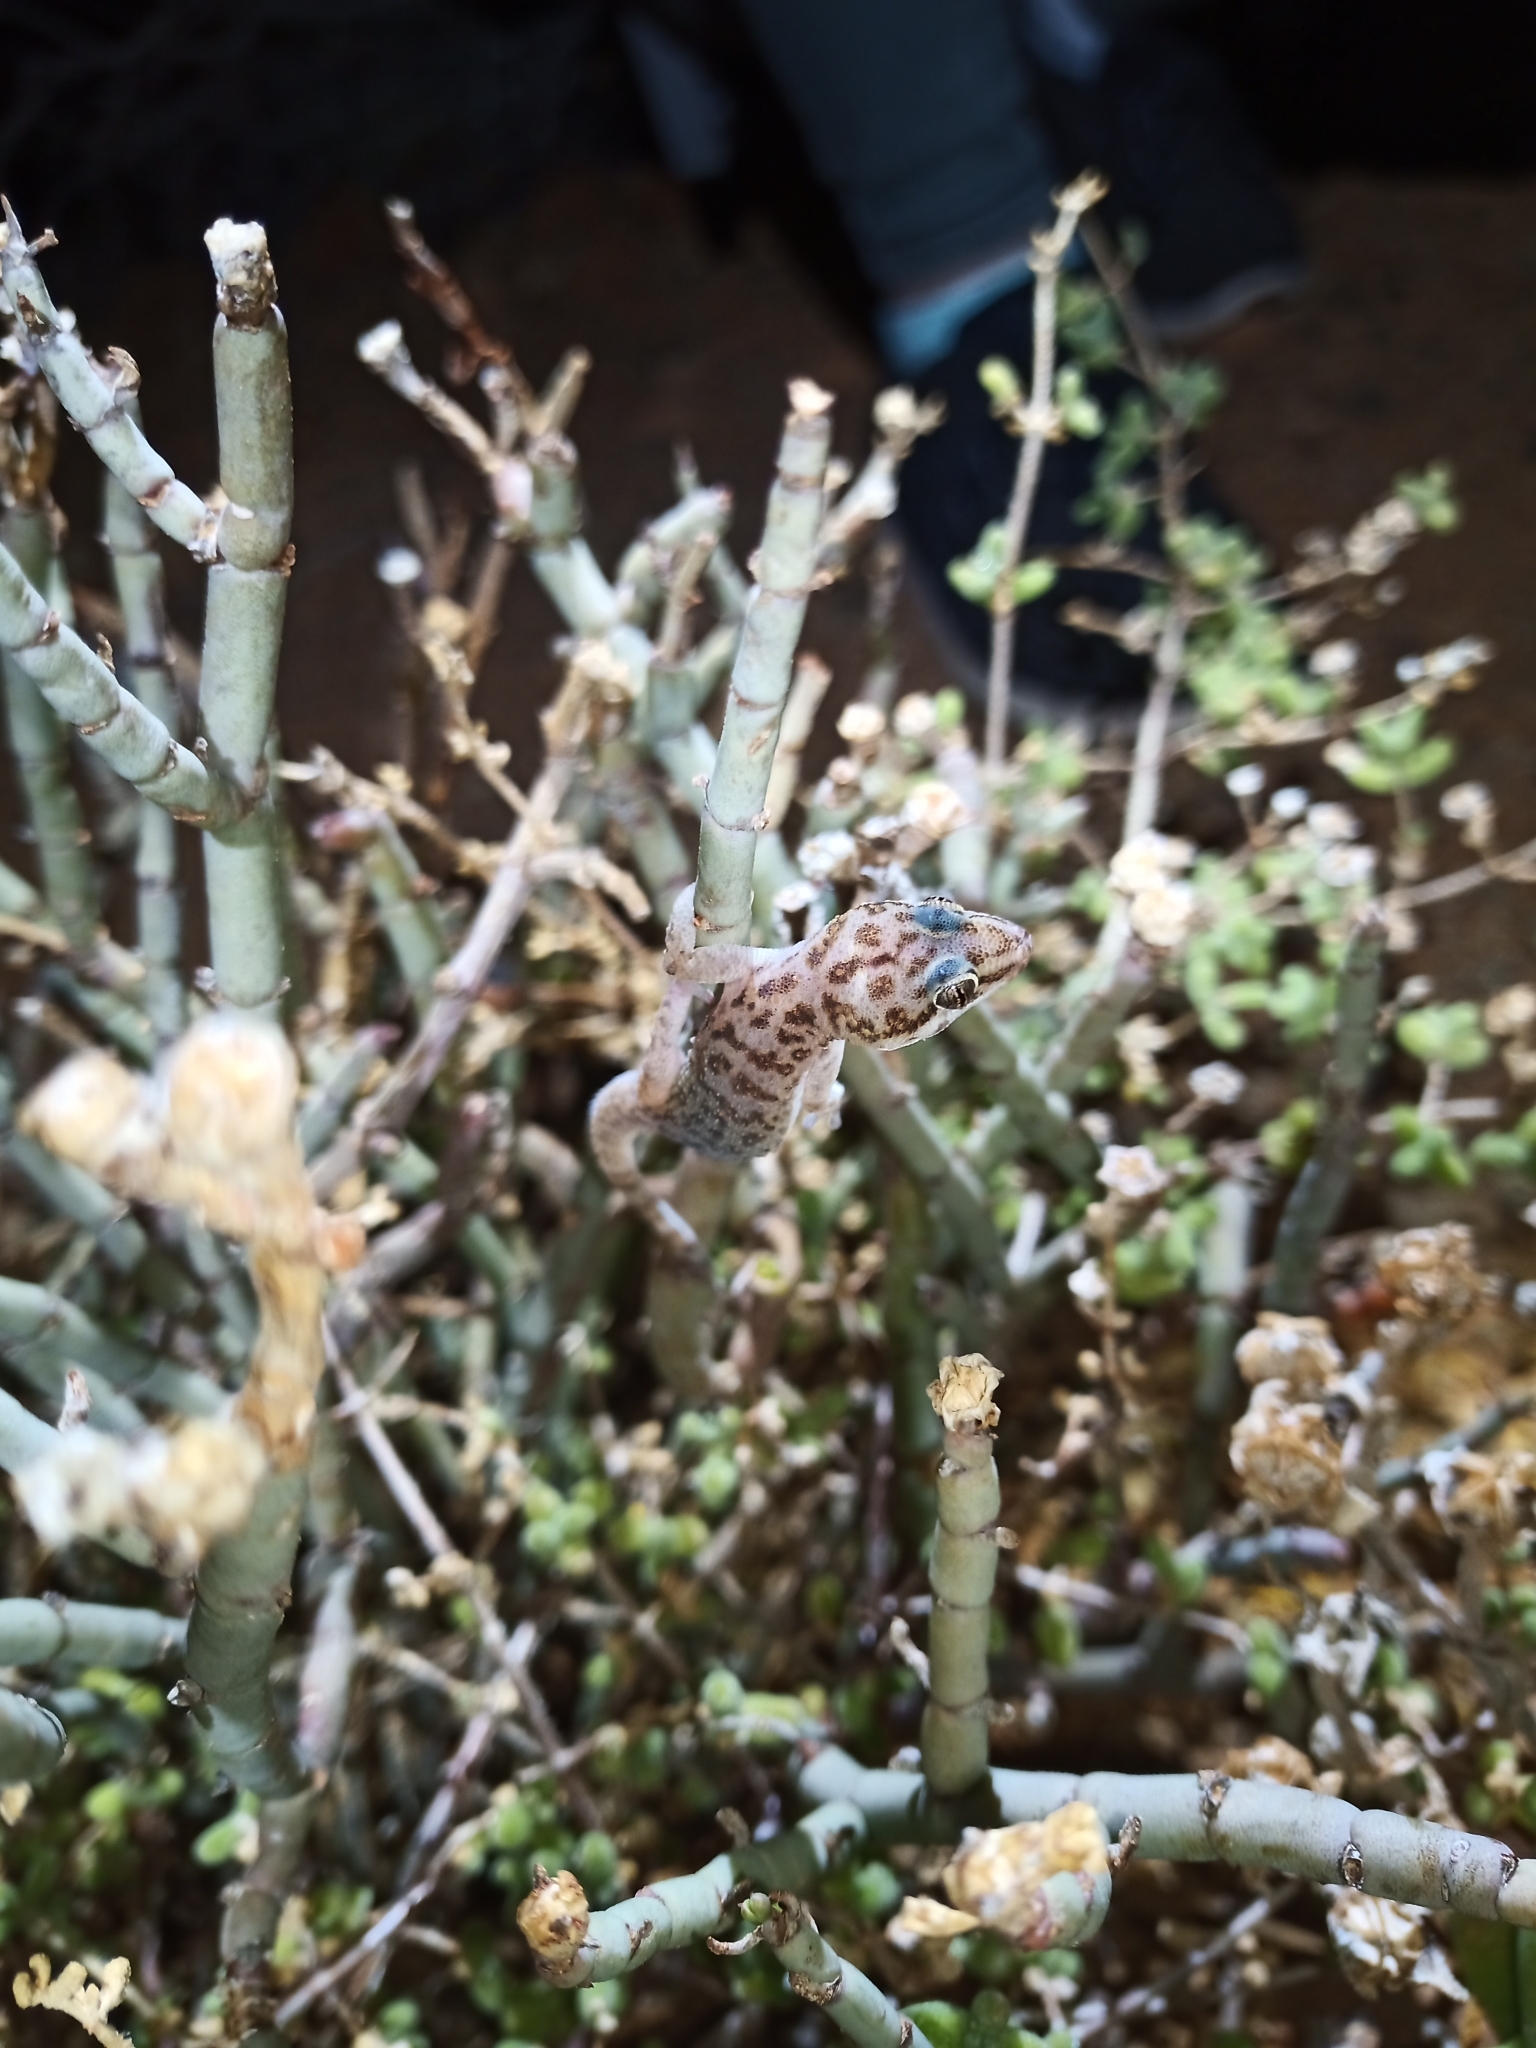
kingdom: Animalia
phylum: Chordata
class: Squamata
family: Gekkonidae
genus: Pachydactylus
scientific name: Pachydactylus weberi
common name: Weber's gecko
